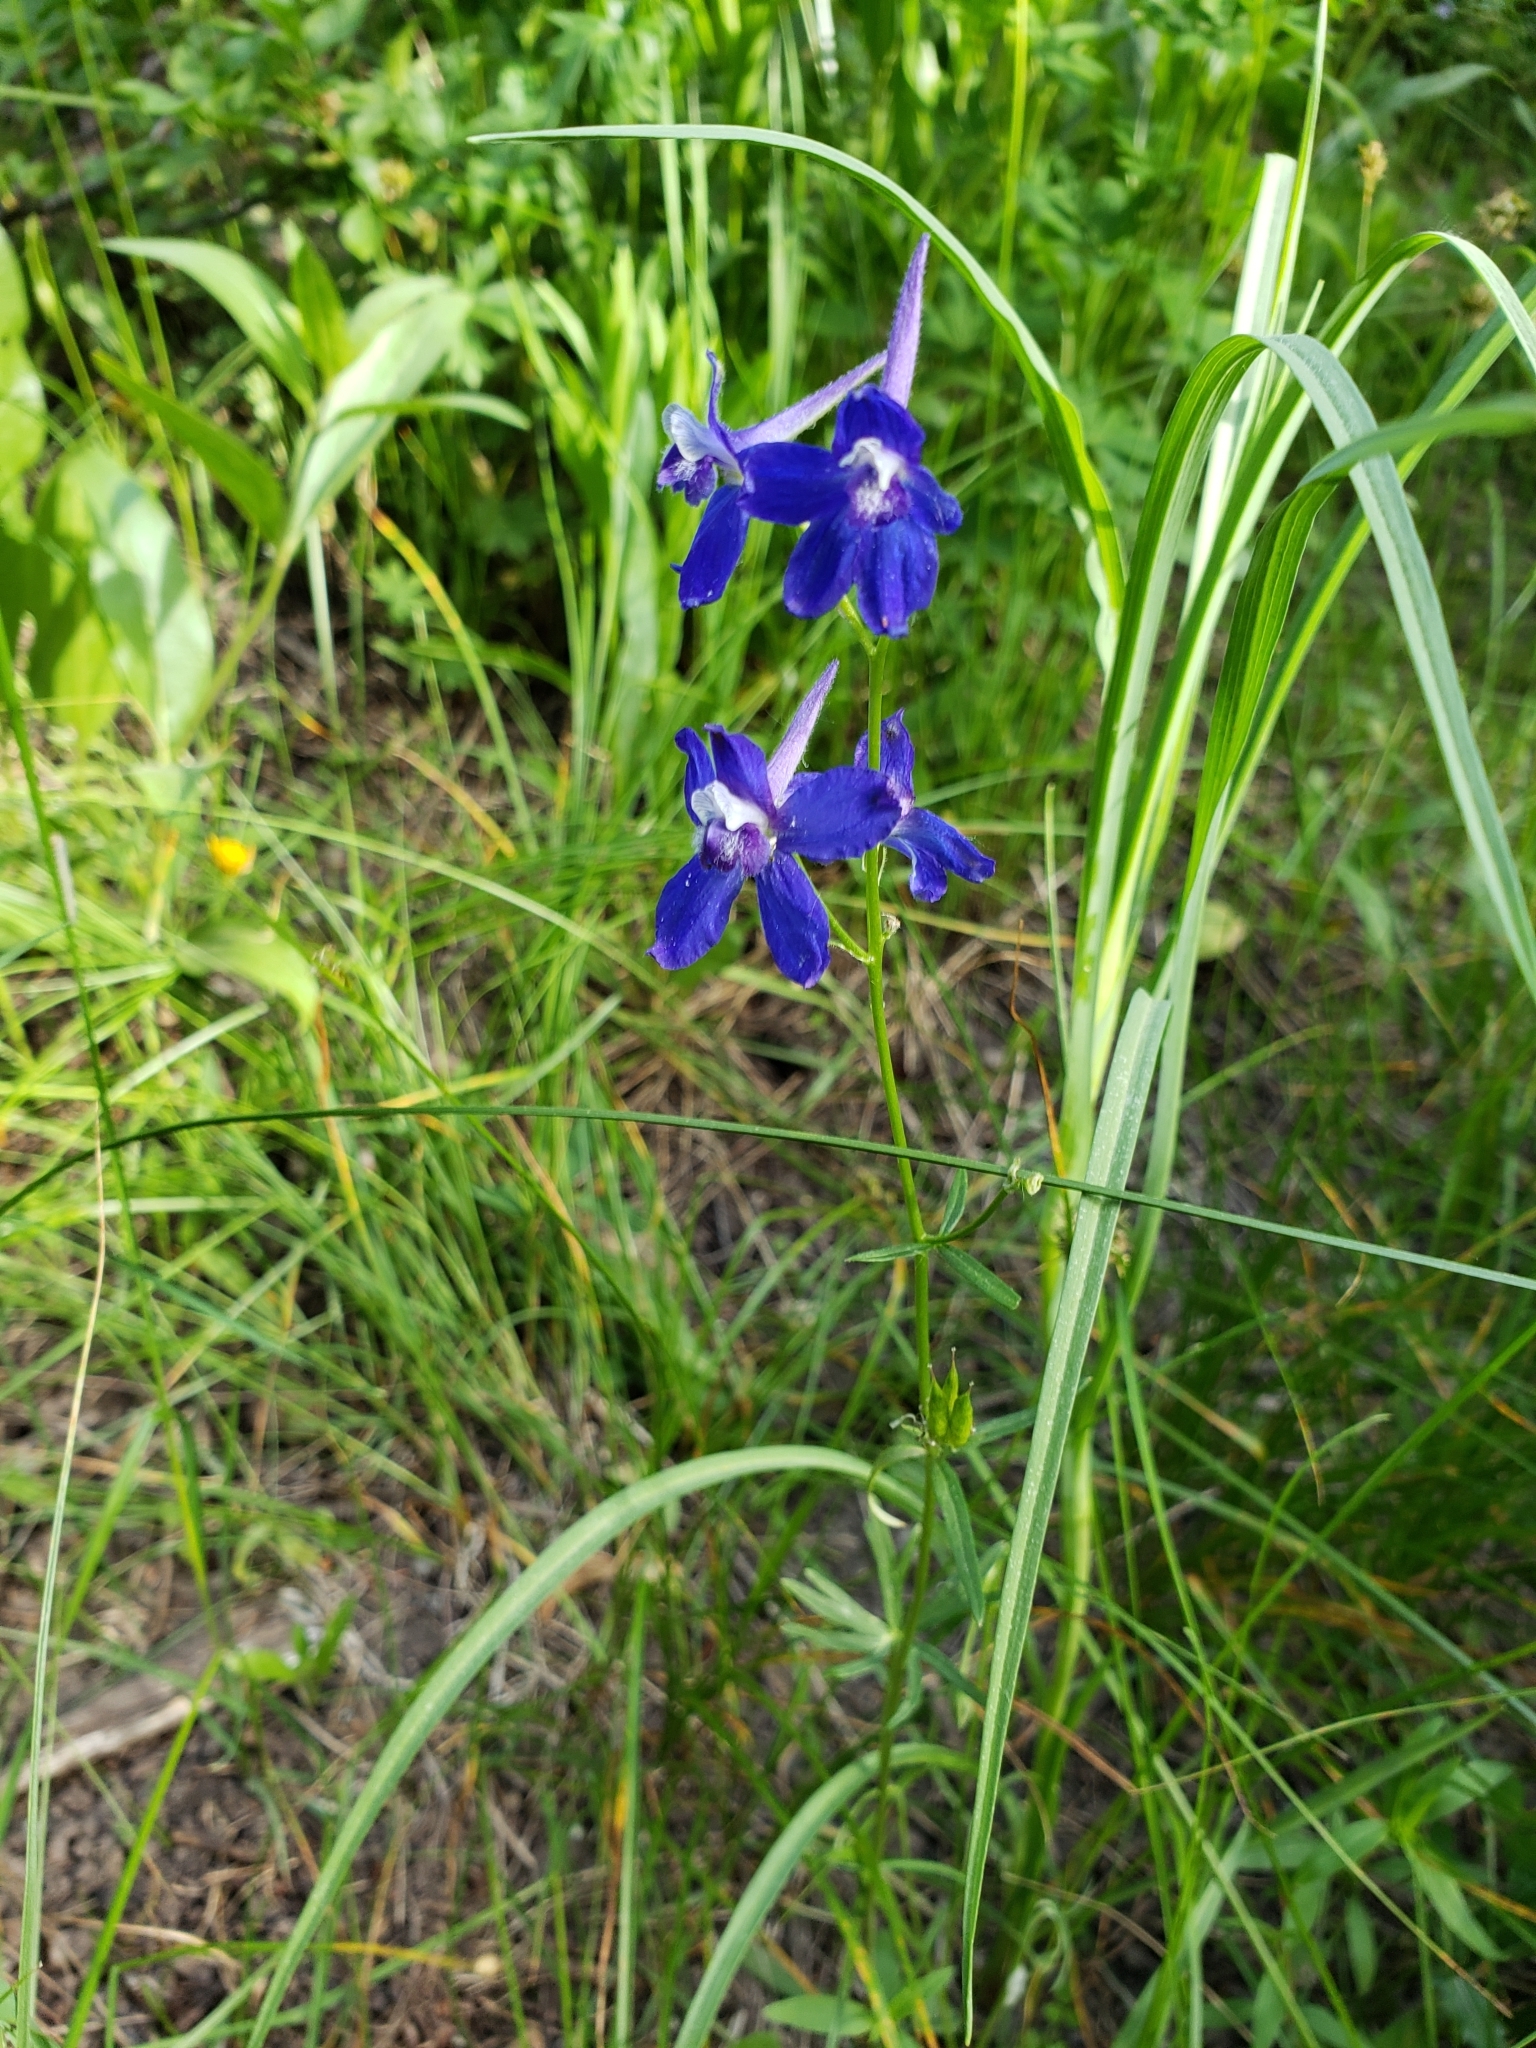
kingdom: Plantae
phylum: Tracheophyta
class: Magnoliopsida
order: Ranunculales
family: Ranunculaceae
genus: Delphinium
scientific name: Delphinium nuttallianum
